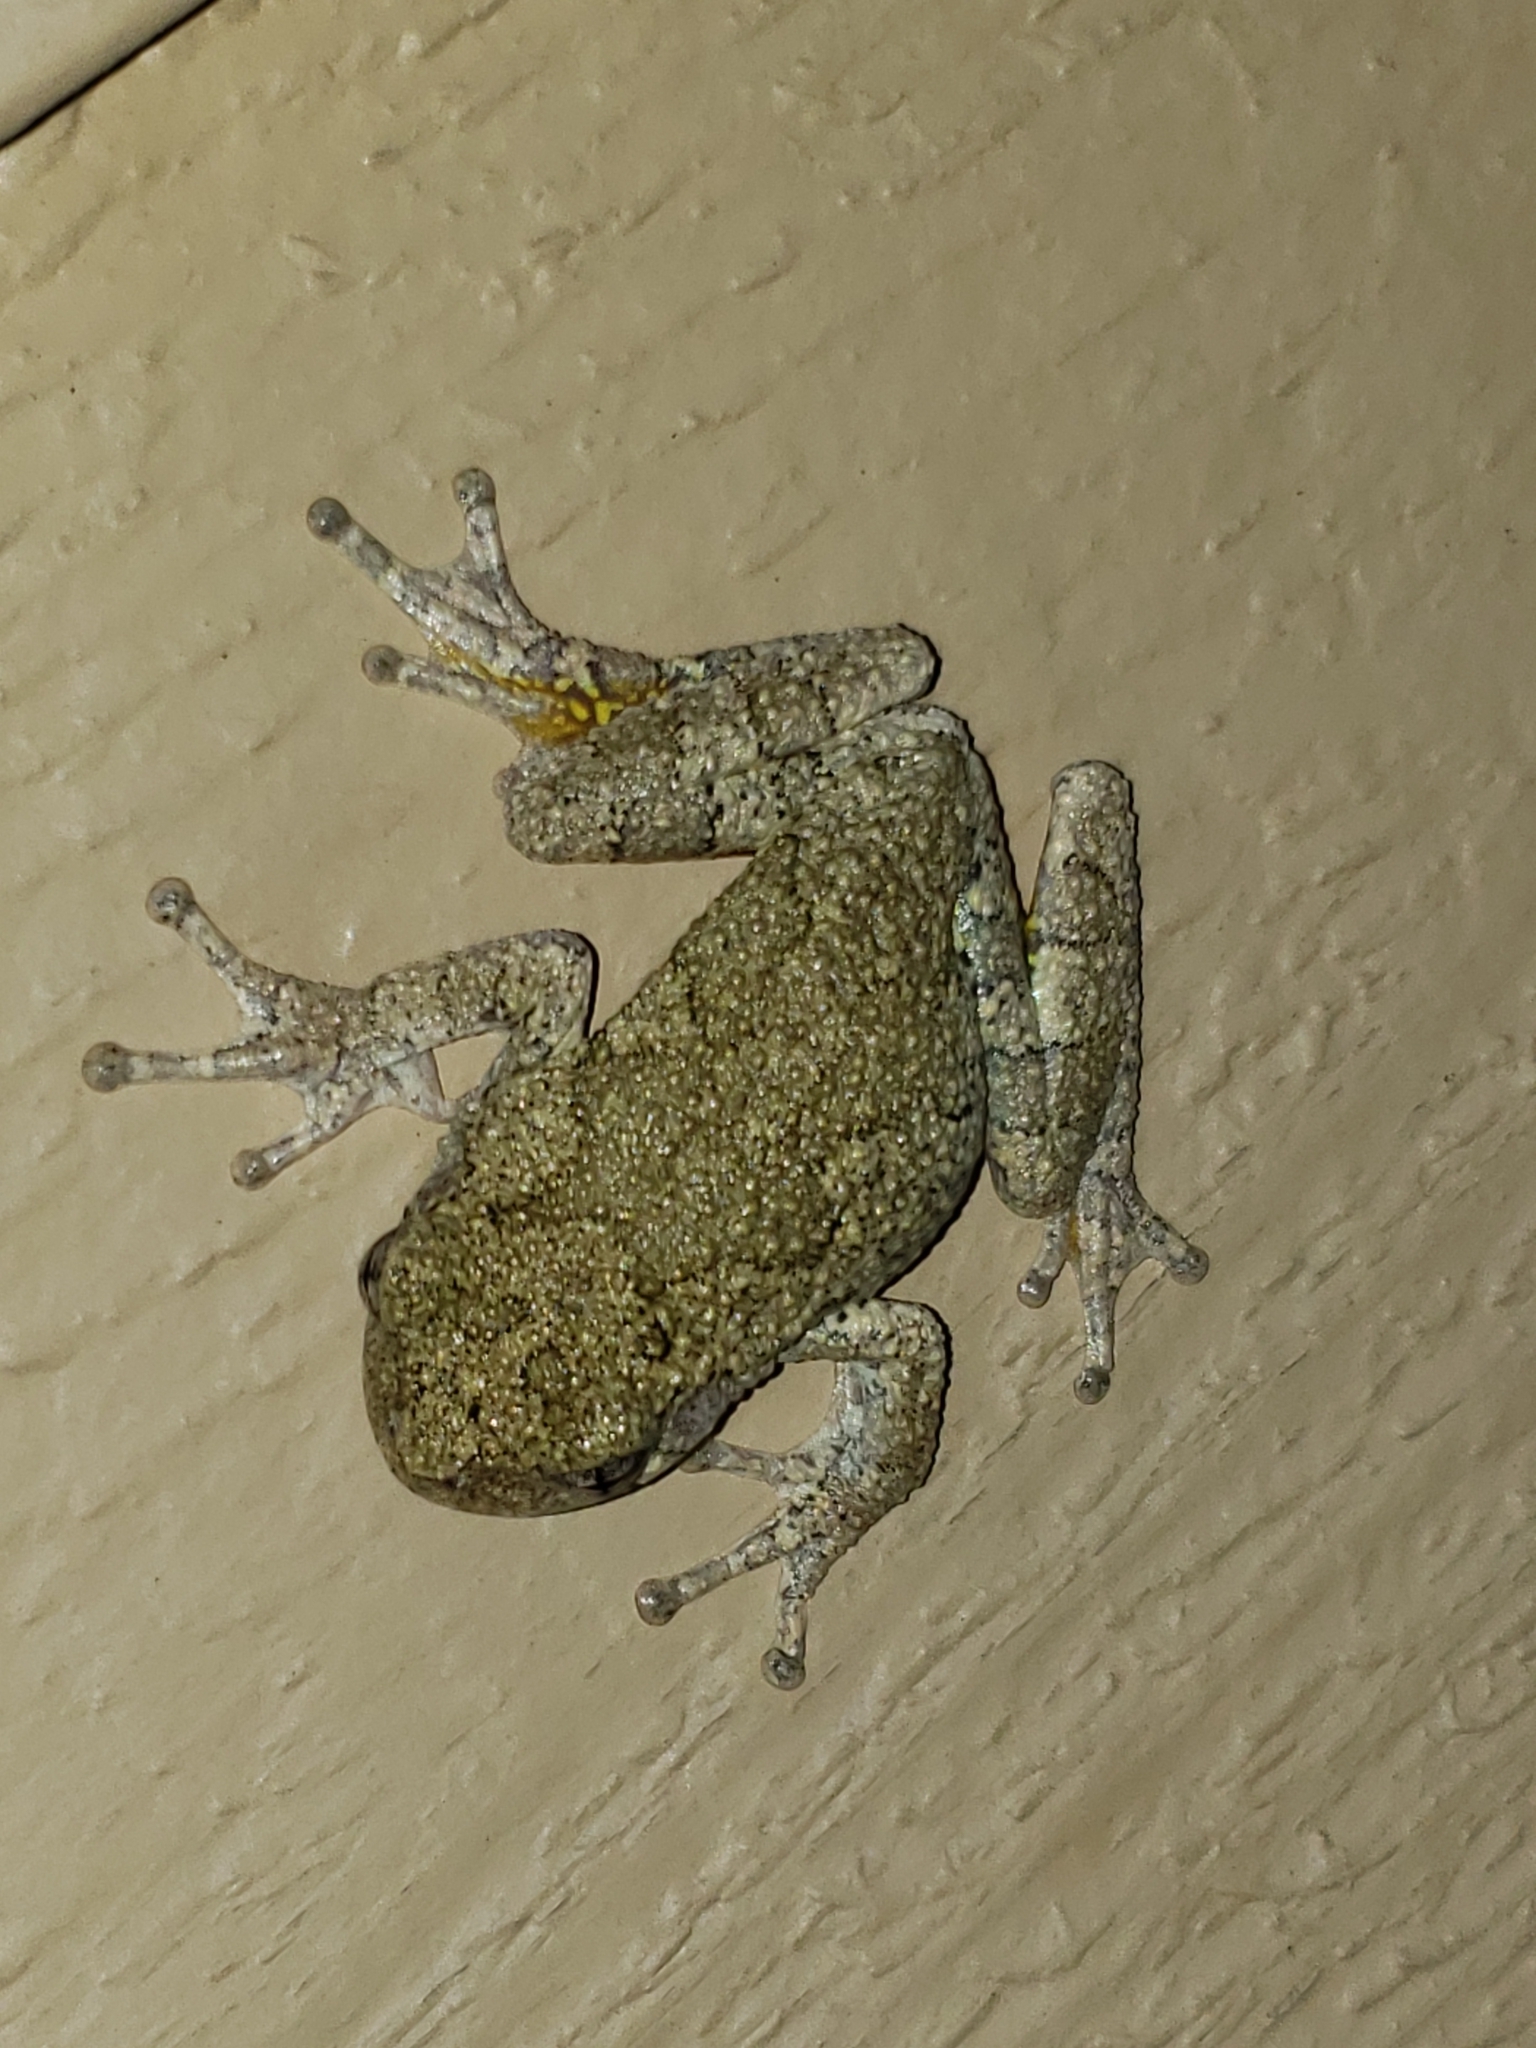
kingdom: Animalia
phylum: Chordata
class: Amphibia
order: Anura
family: Hylidae
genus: Hyla
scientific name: Hyla
